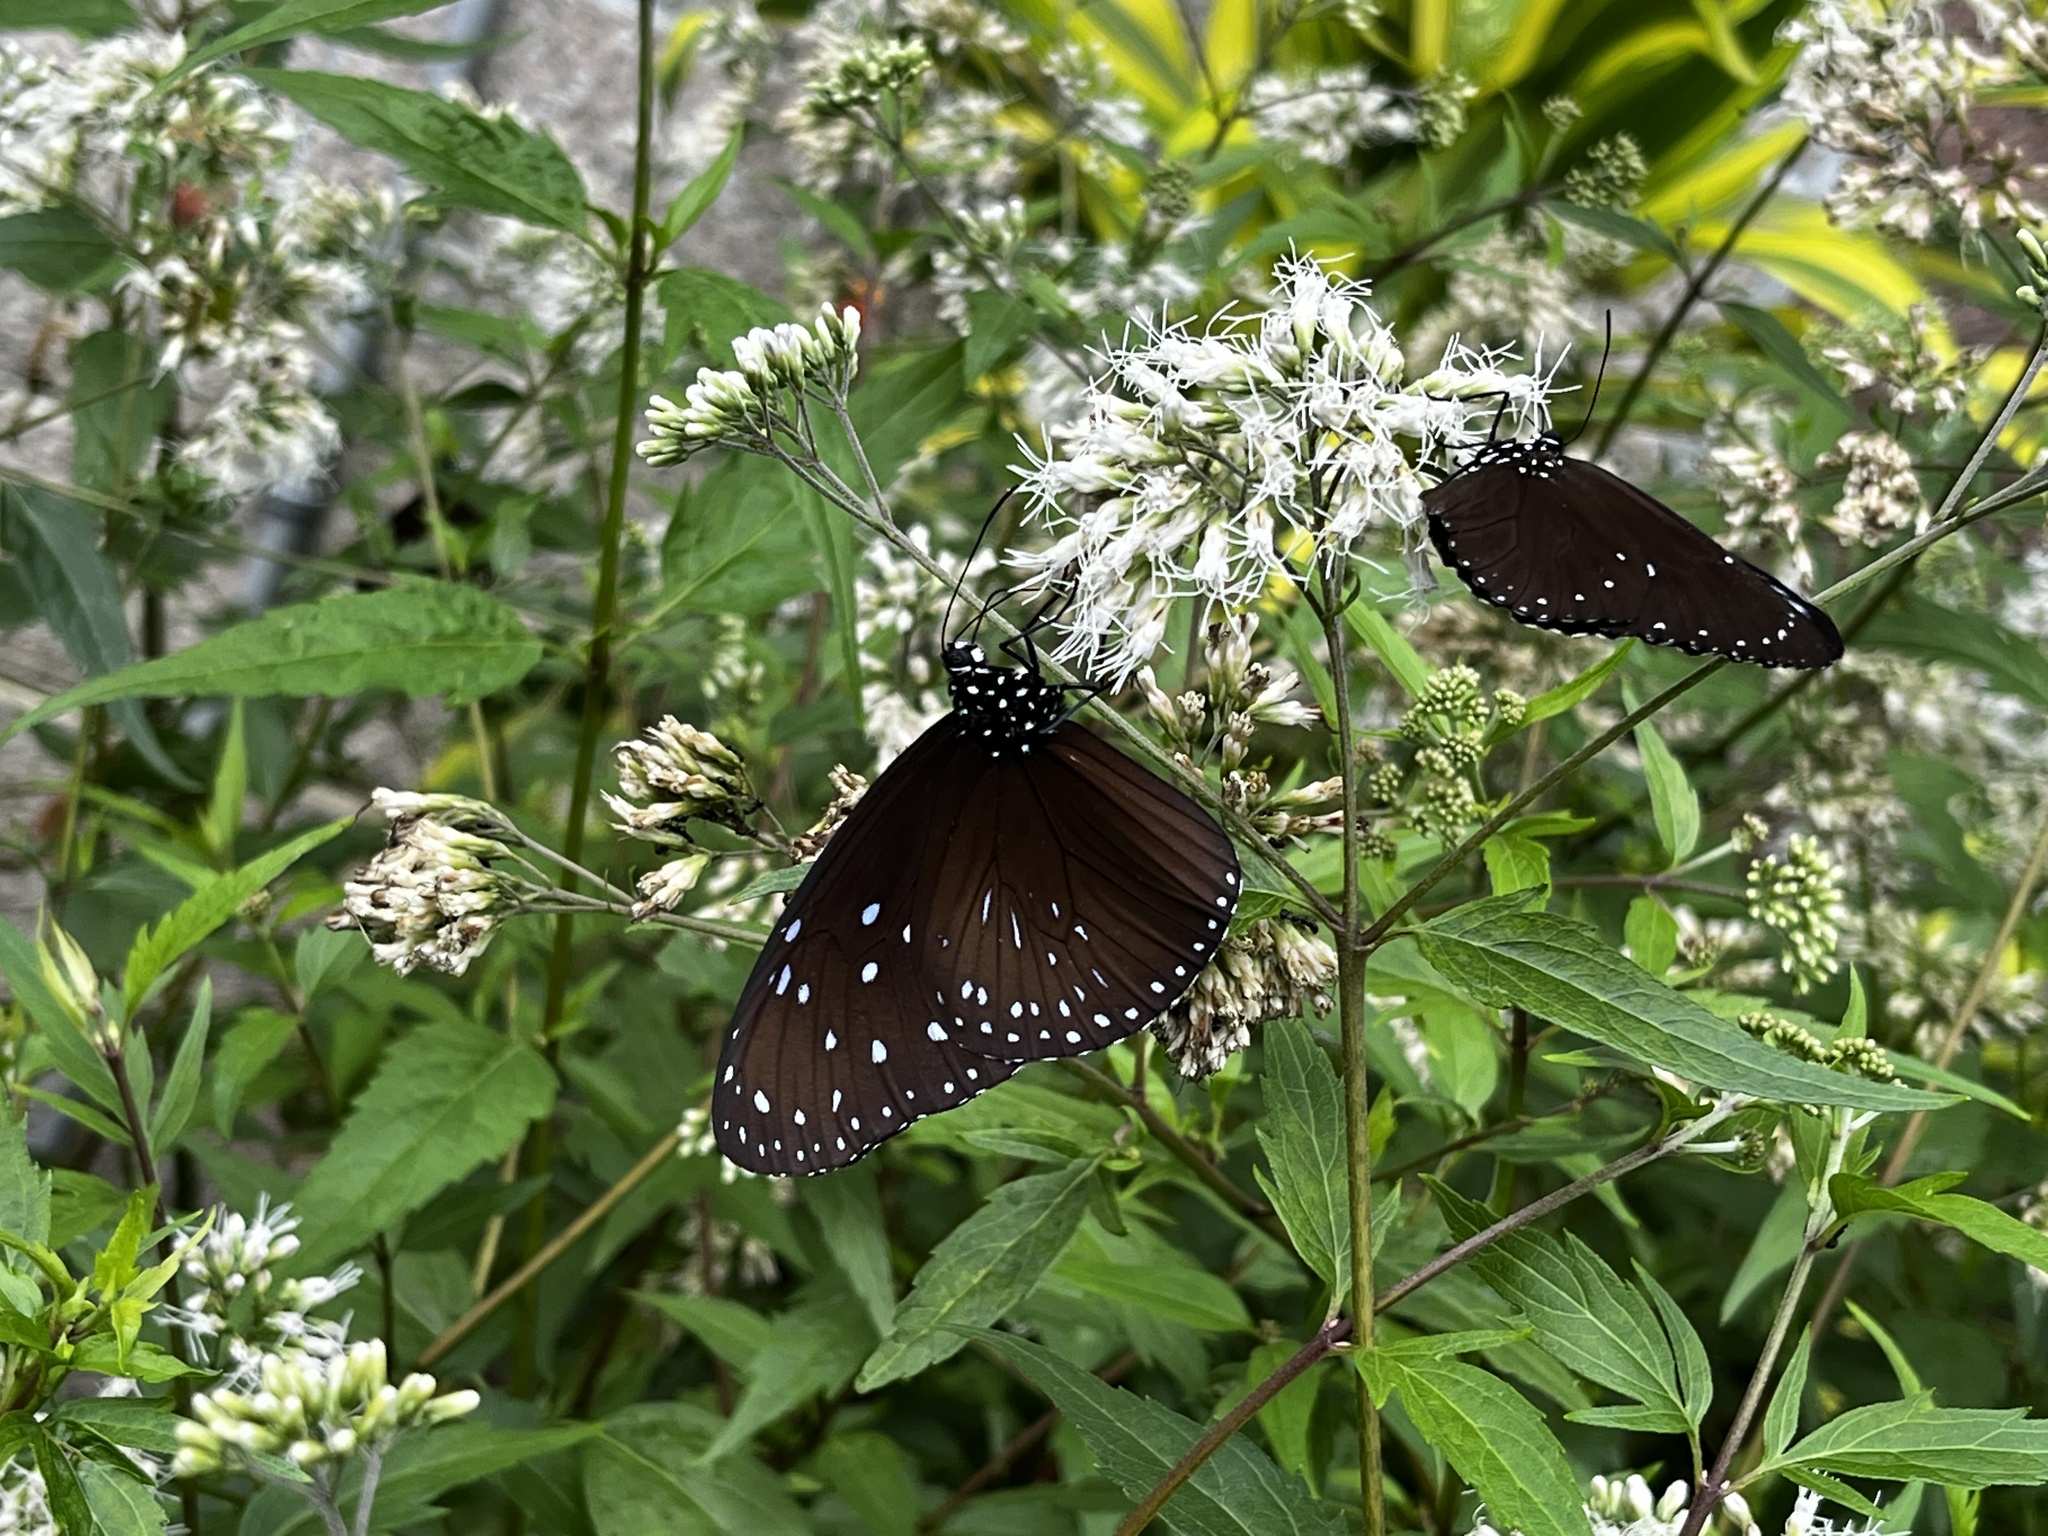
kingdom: Animalia
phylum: Arthropoda
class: Insecta
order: Lepidoptera
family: Nymphalidae
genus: Euploea
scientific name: Euploea mulciber
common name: Striped blue crow butterfly
